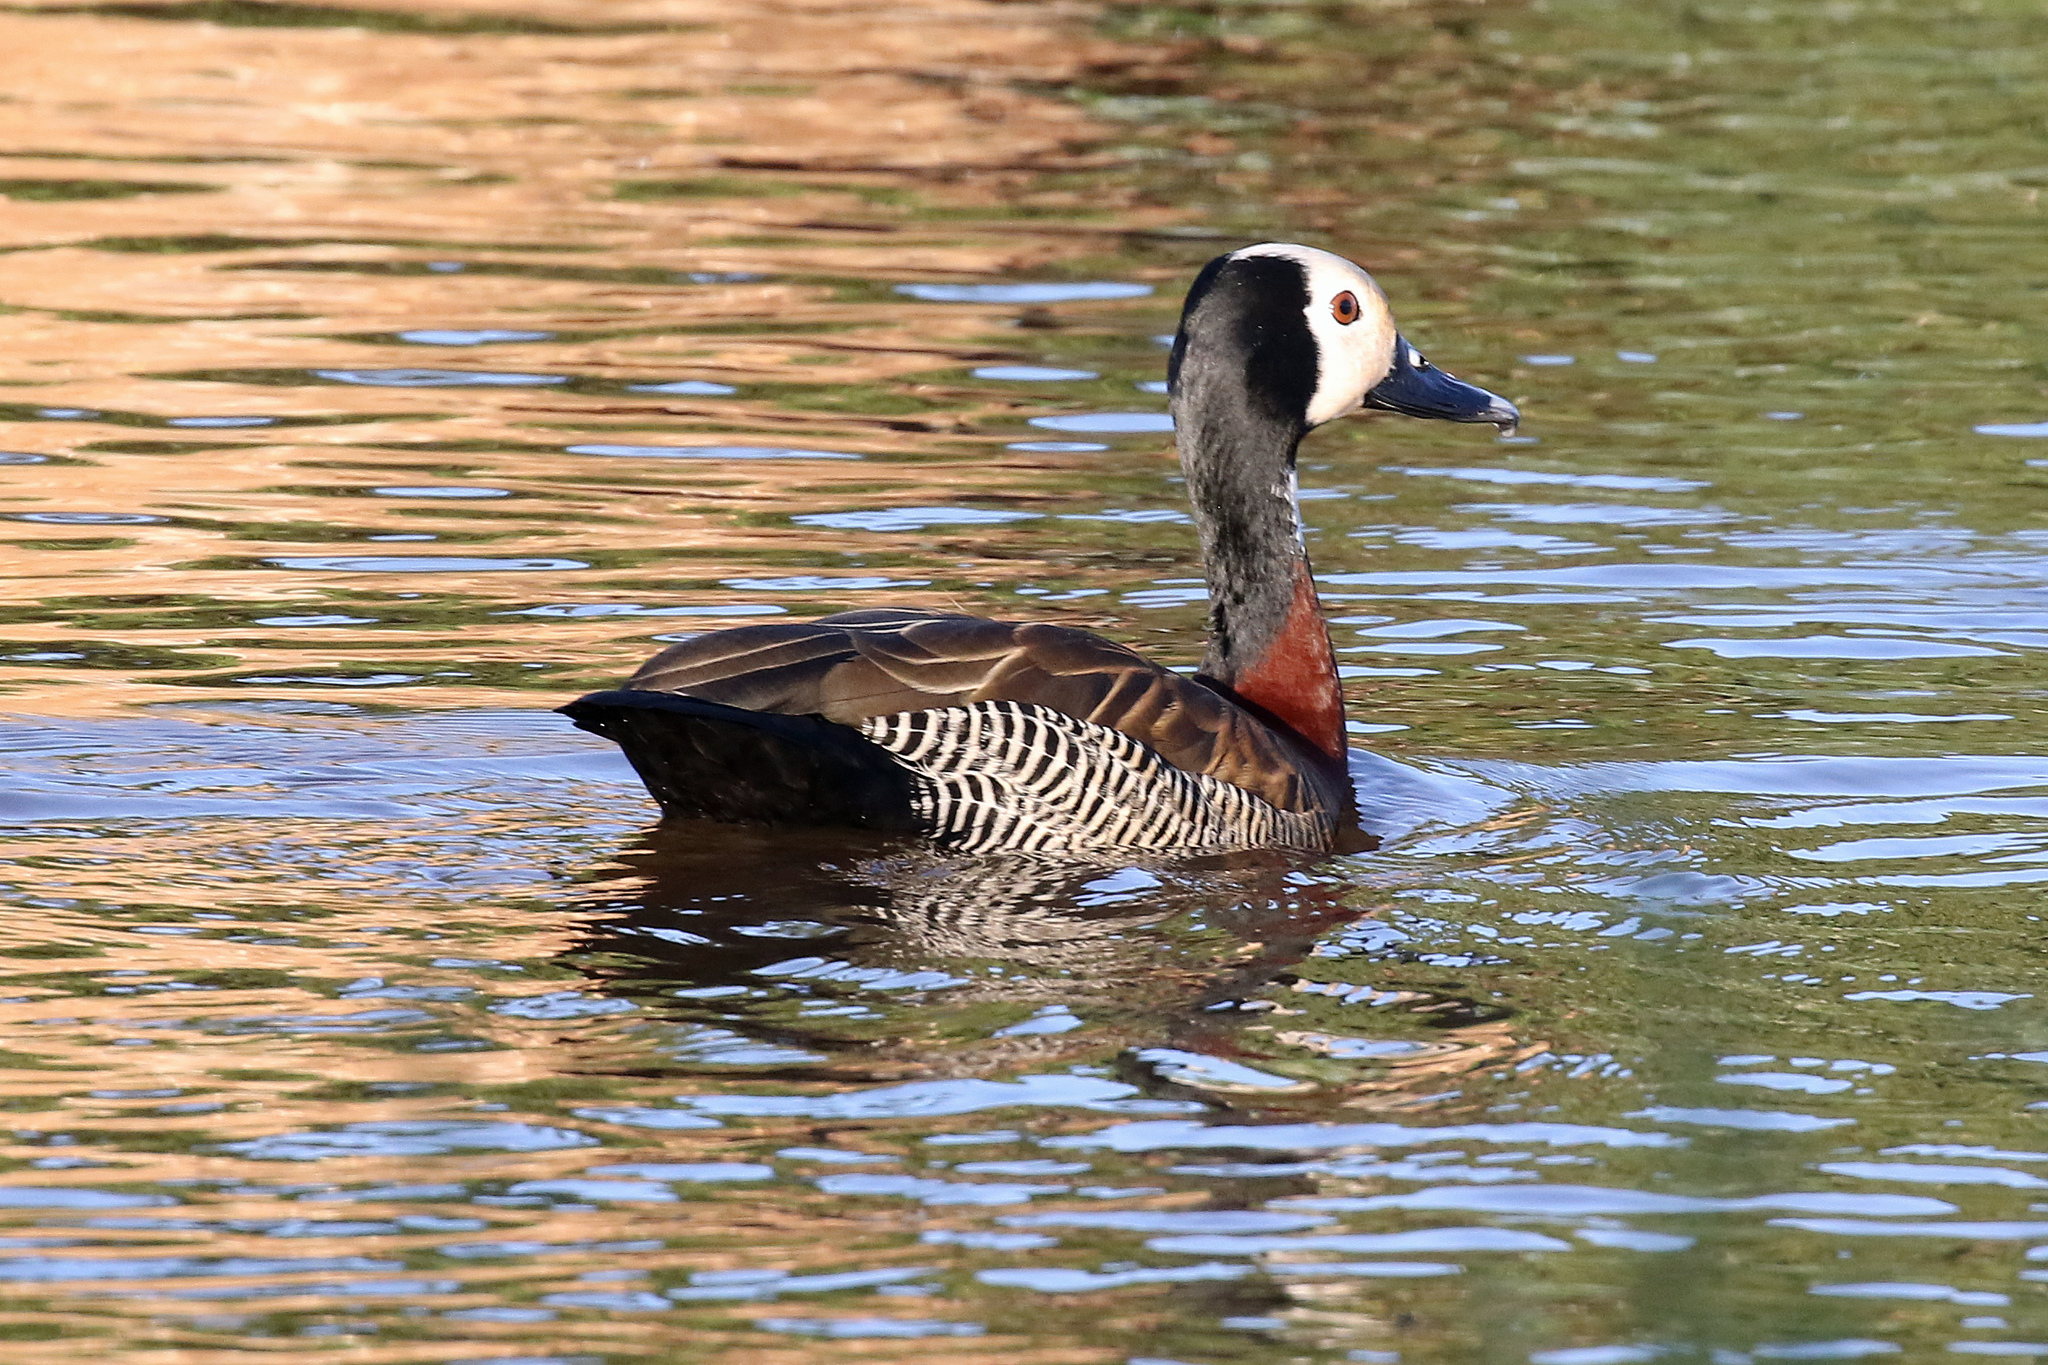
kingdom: Animalia
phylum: Chordata
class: Aves
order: Anseriformes
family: Anatidae
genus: Dendrocygna
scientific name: Dendrocygna viduata
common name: White-faced whistling duck
